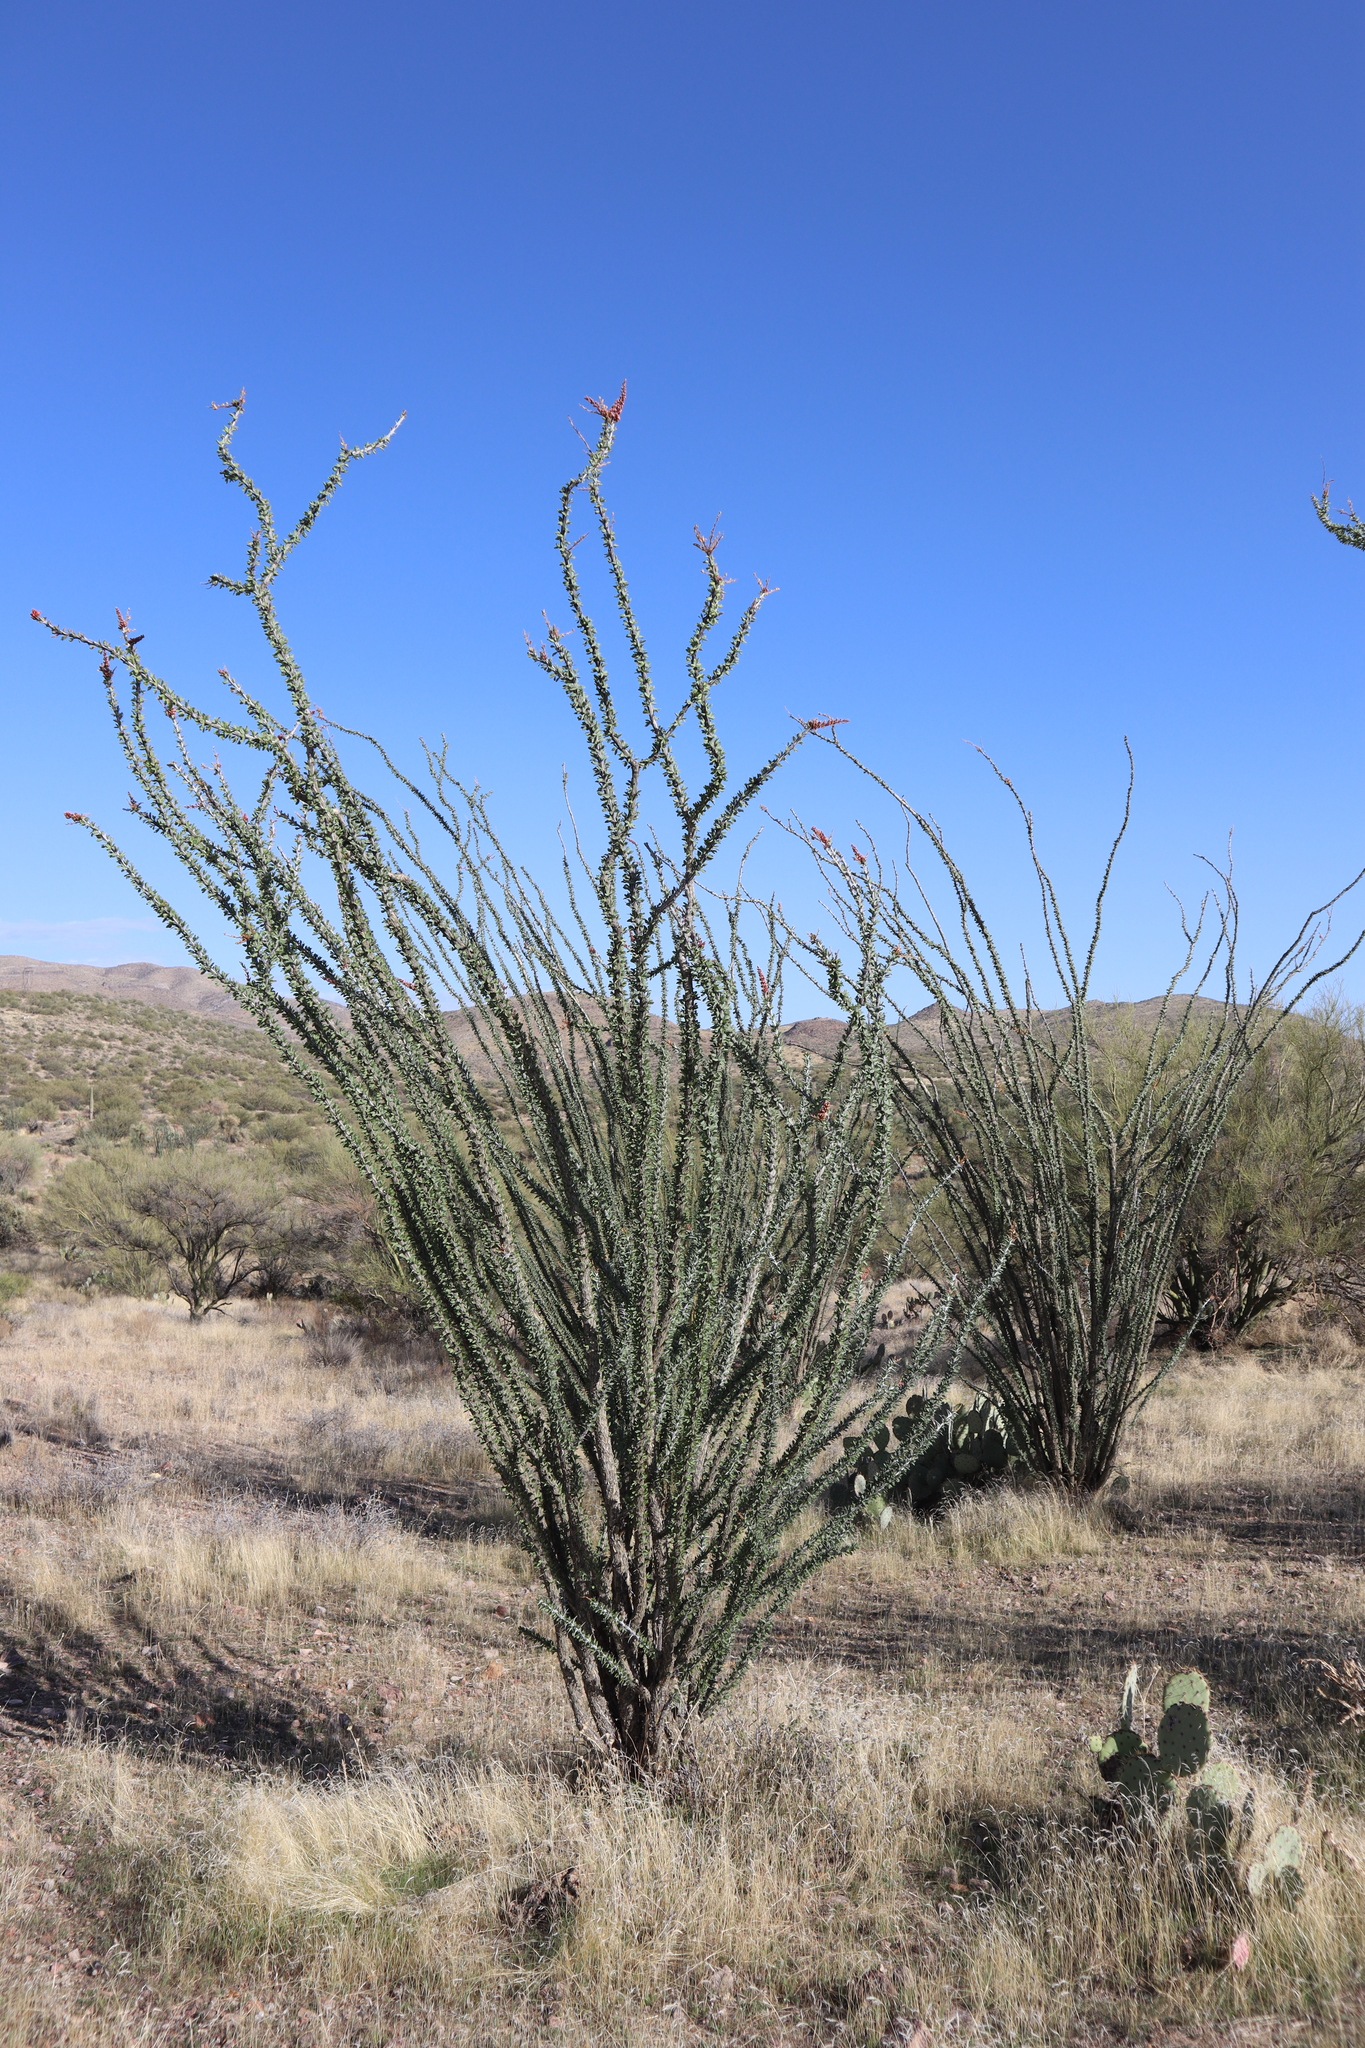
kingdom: Plantae
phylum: Tracheophyta
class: Magnoliopsida
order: Ericales
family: Fouquieriaceae
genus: Fouquieria
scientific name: Fouquieria splendens
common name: Vine-cactus
